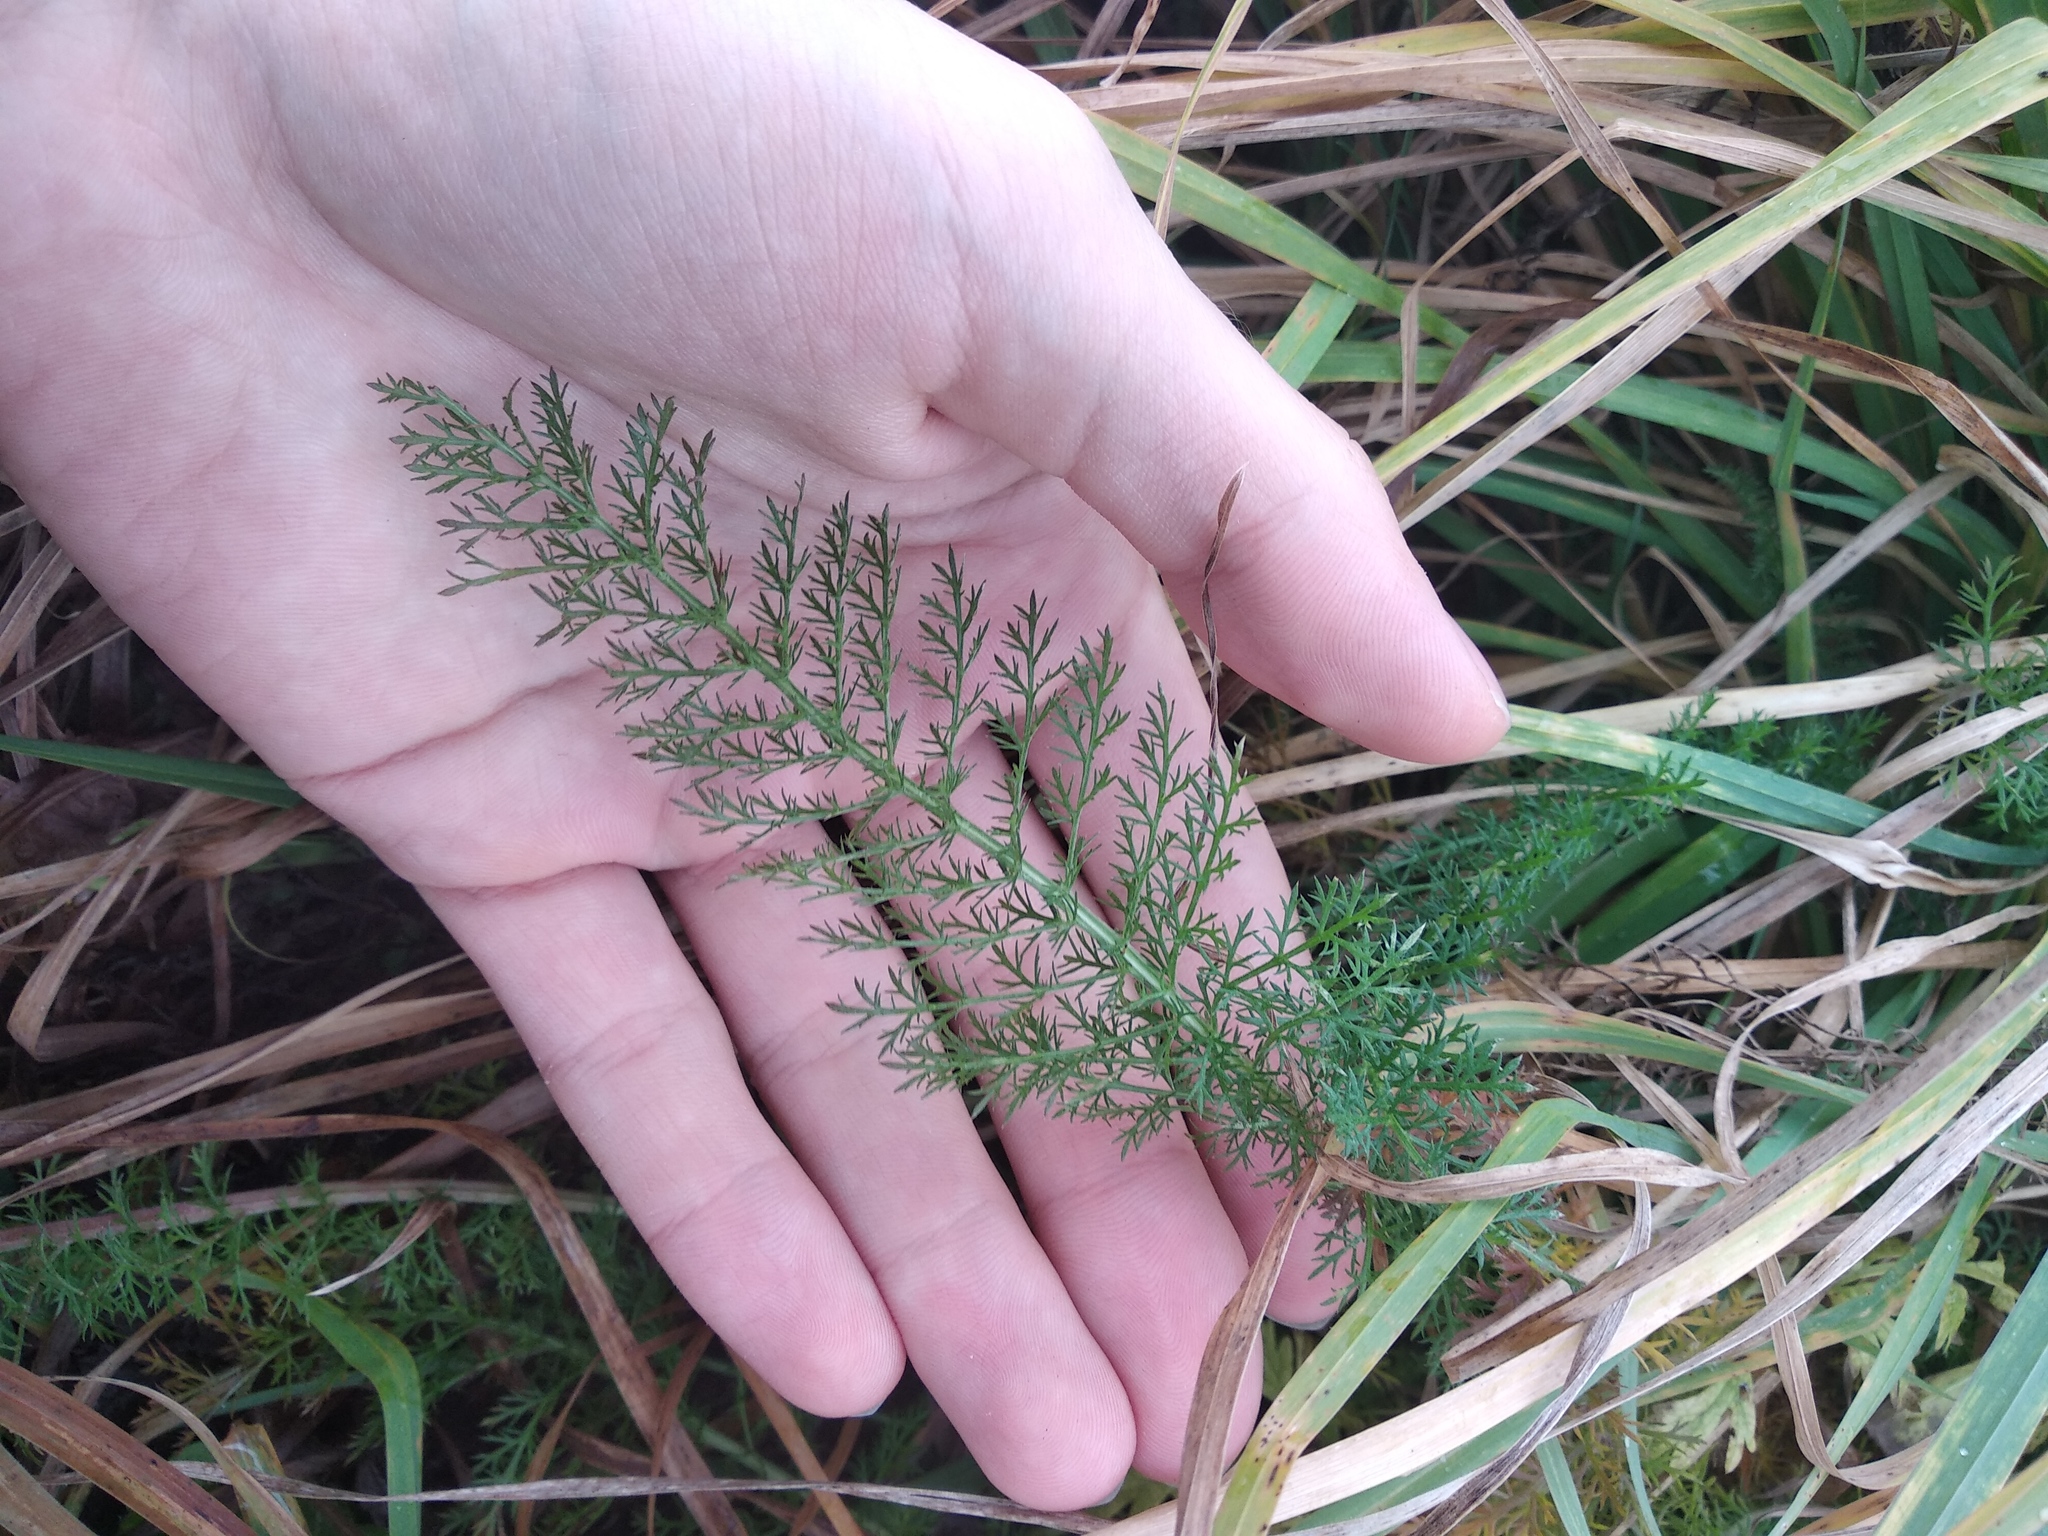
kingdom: Plantae
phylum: Tracheophyta
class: Magnoliopsida
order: Asterales
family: Asteraceae
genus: Achillea
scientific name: Achillea millefolium
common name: Yarrow
